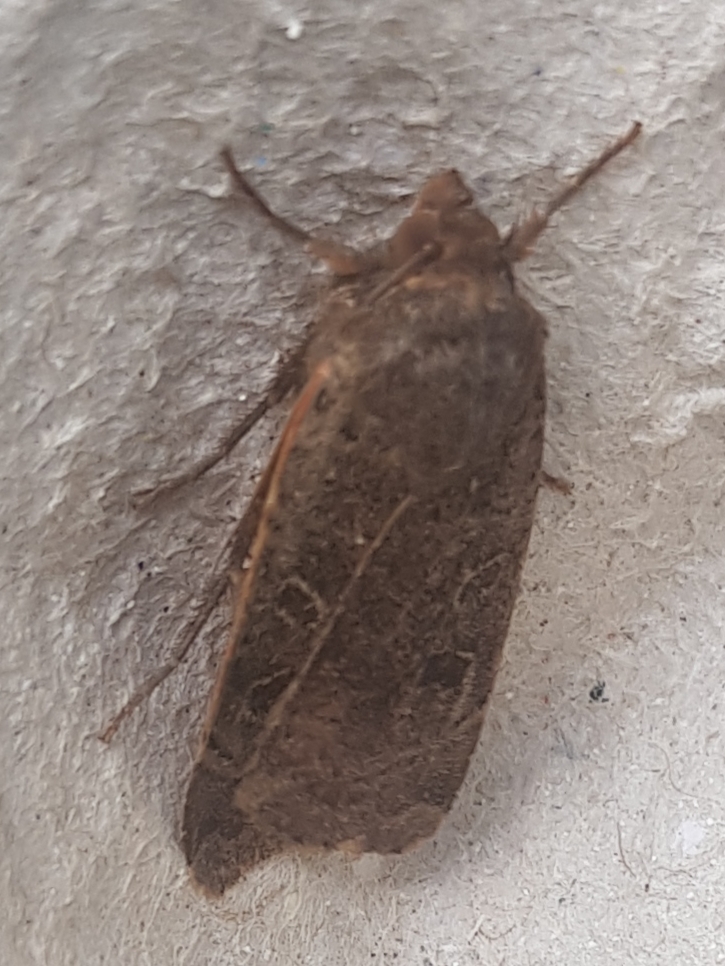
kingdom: Animalia
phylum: Arthropoda
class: Insecta
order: Lepidoptera
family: Noctuidae
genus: Noctua
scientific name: Noctua comes
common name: Lesser yellow underwing
